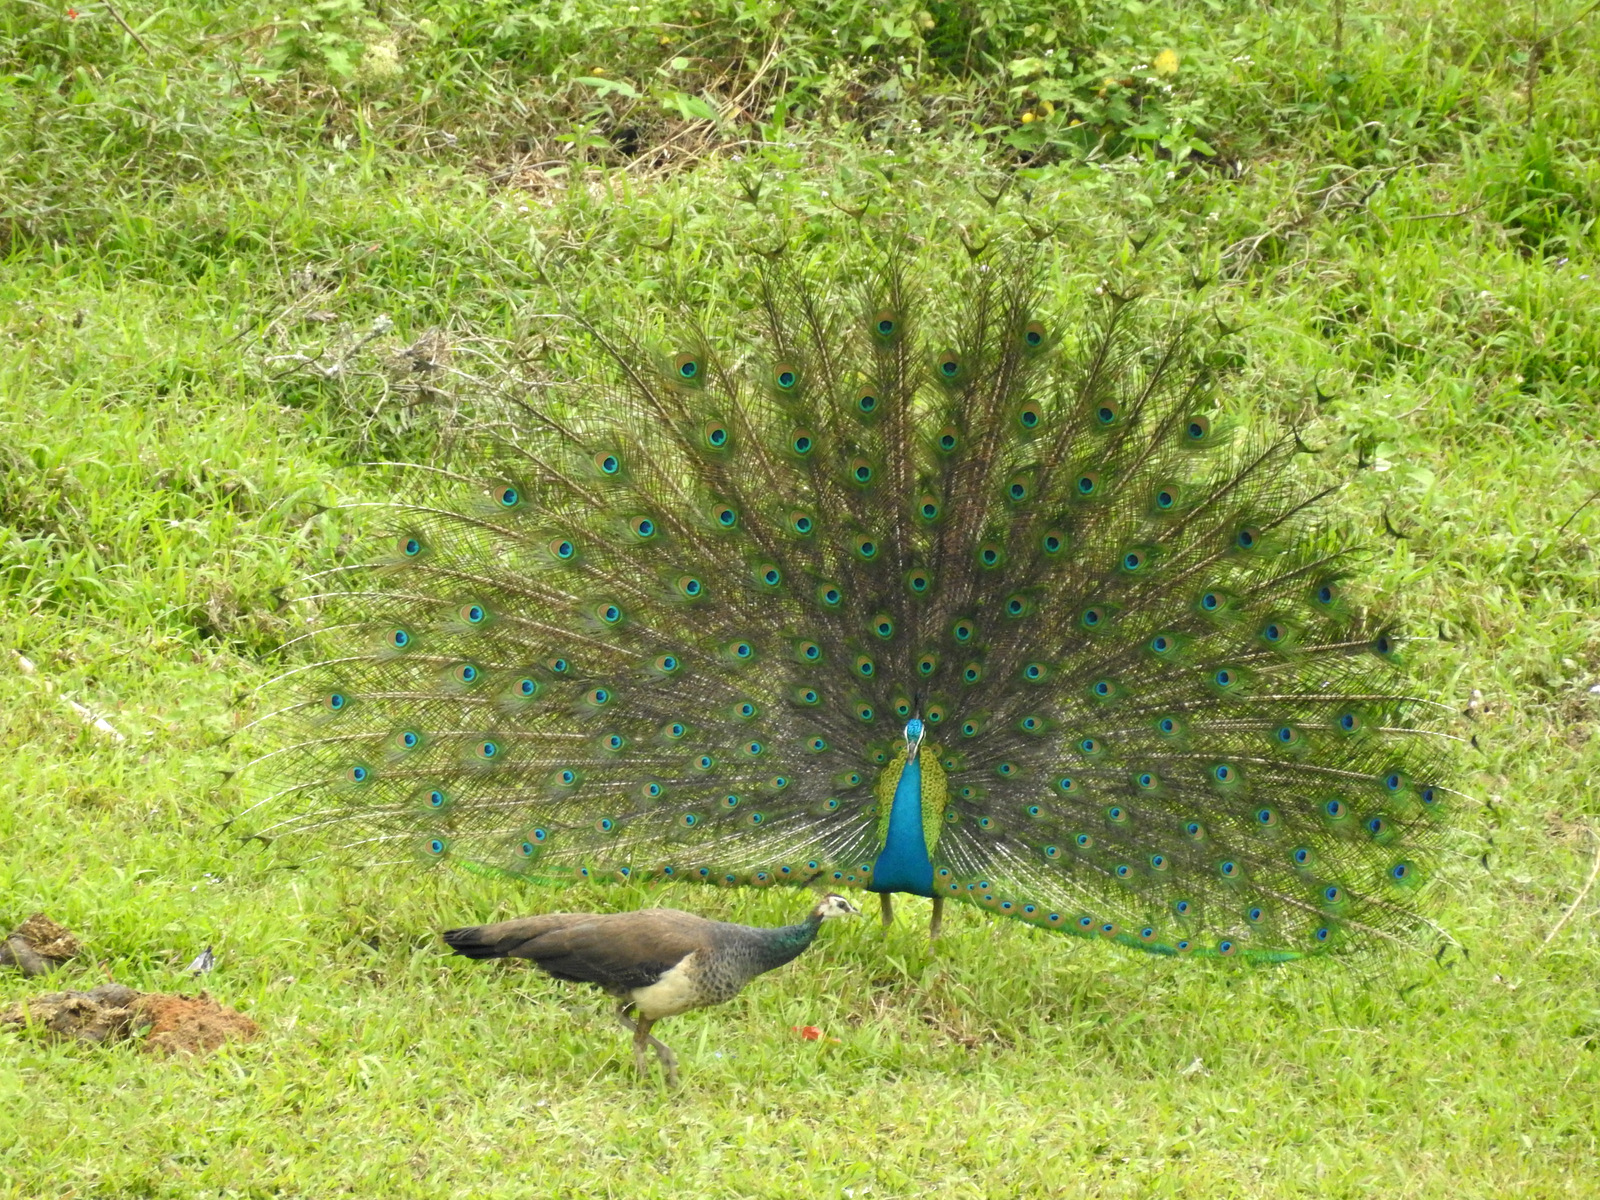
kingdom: Animalia
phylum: Chordata
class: Aves
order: Galliformes
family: Phasianidae
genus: Pavo
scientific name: Pavo cristatus
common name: Indian peafowl
